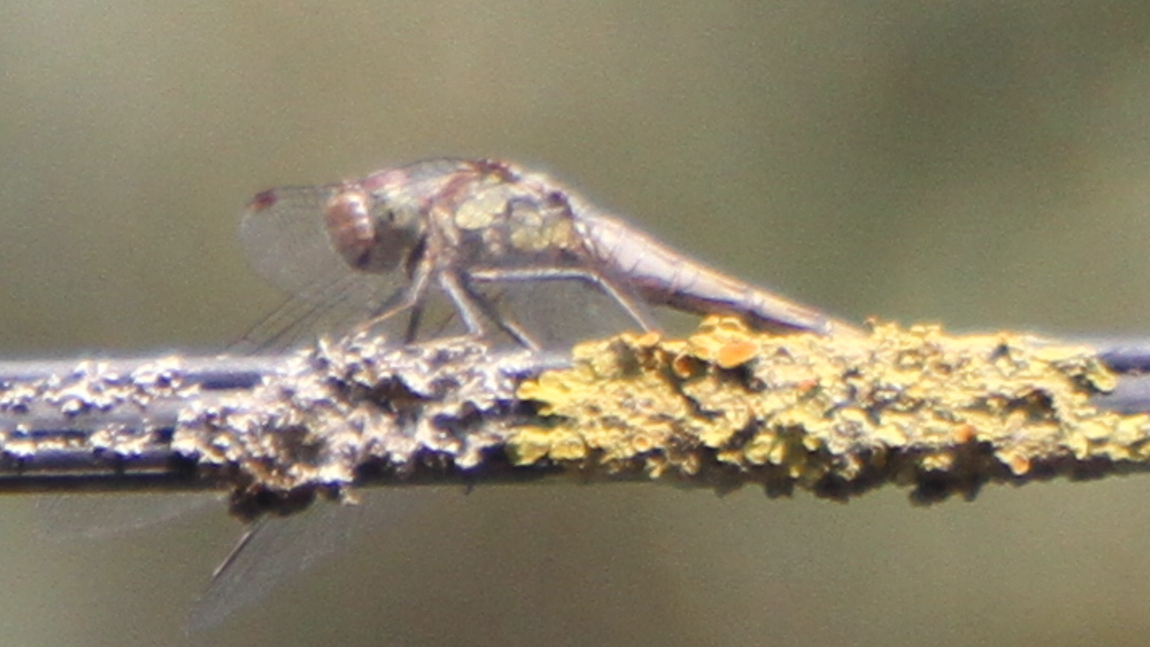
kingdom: Animalia
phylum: Arthropoda
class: Insecta
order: Odonata
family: Libellulidae
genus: Sympetrum
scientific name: Sympetrum striolatum
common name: Common darter
